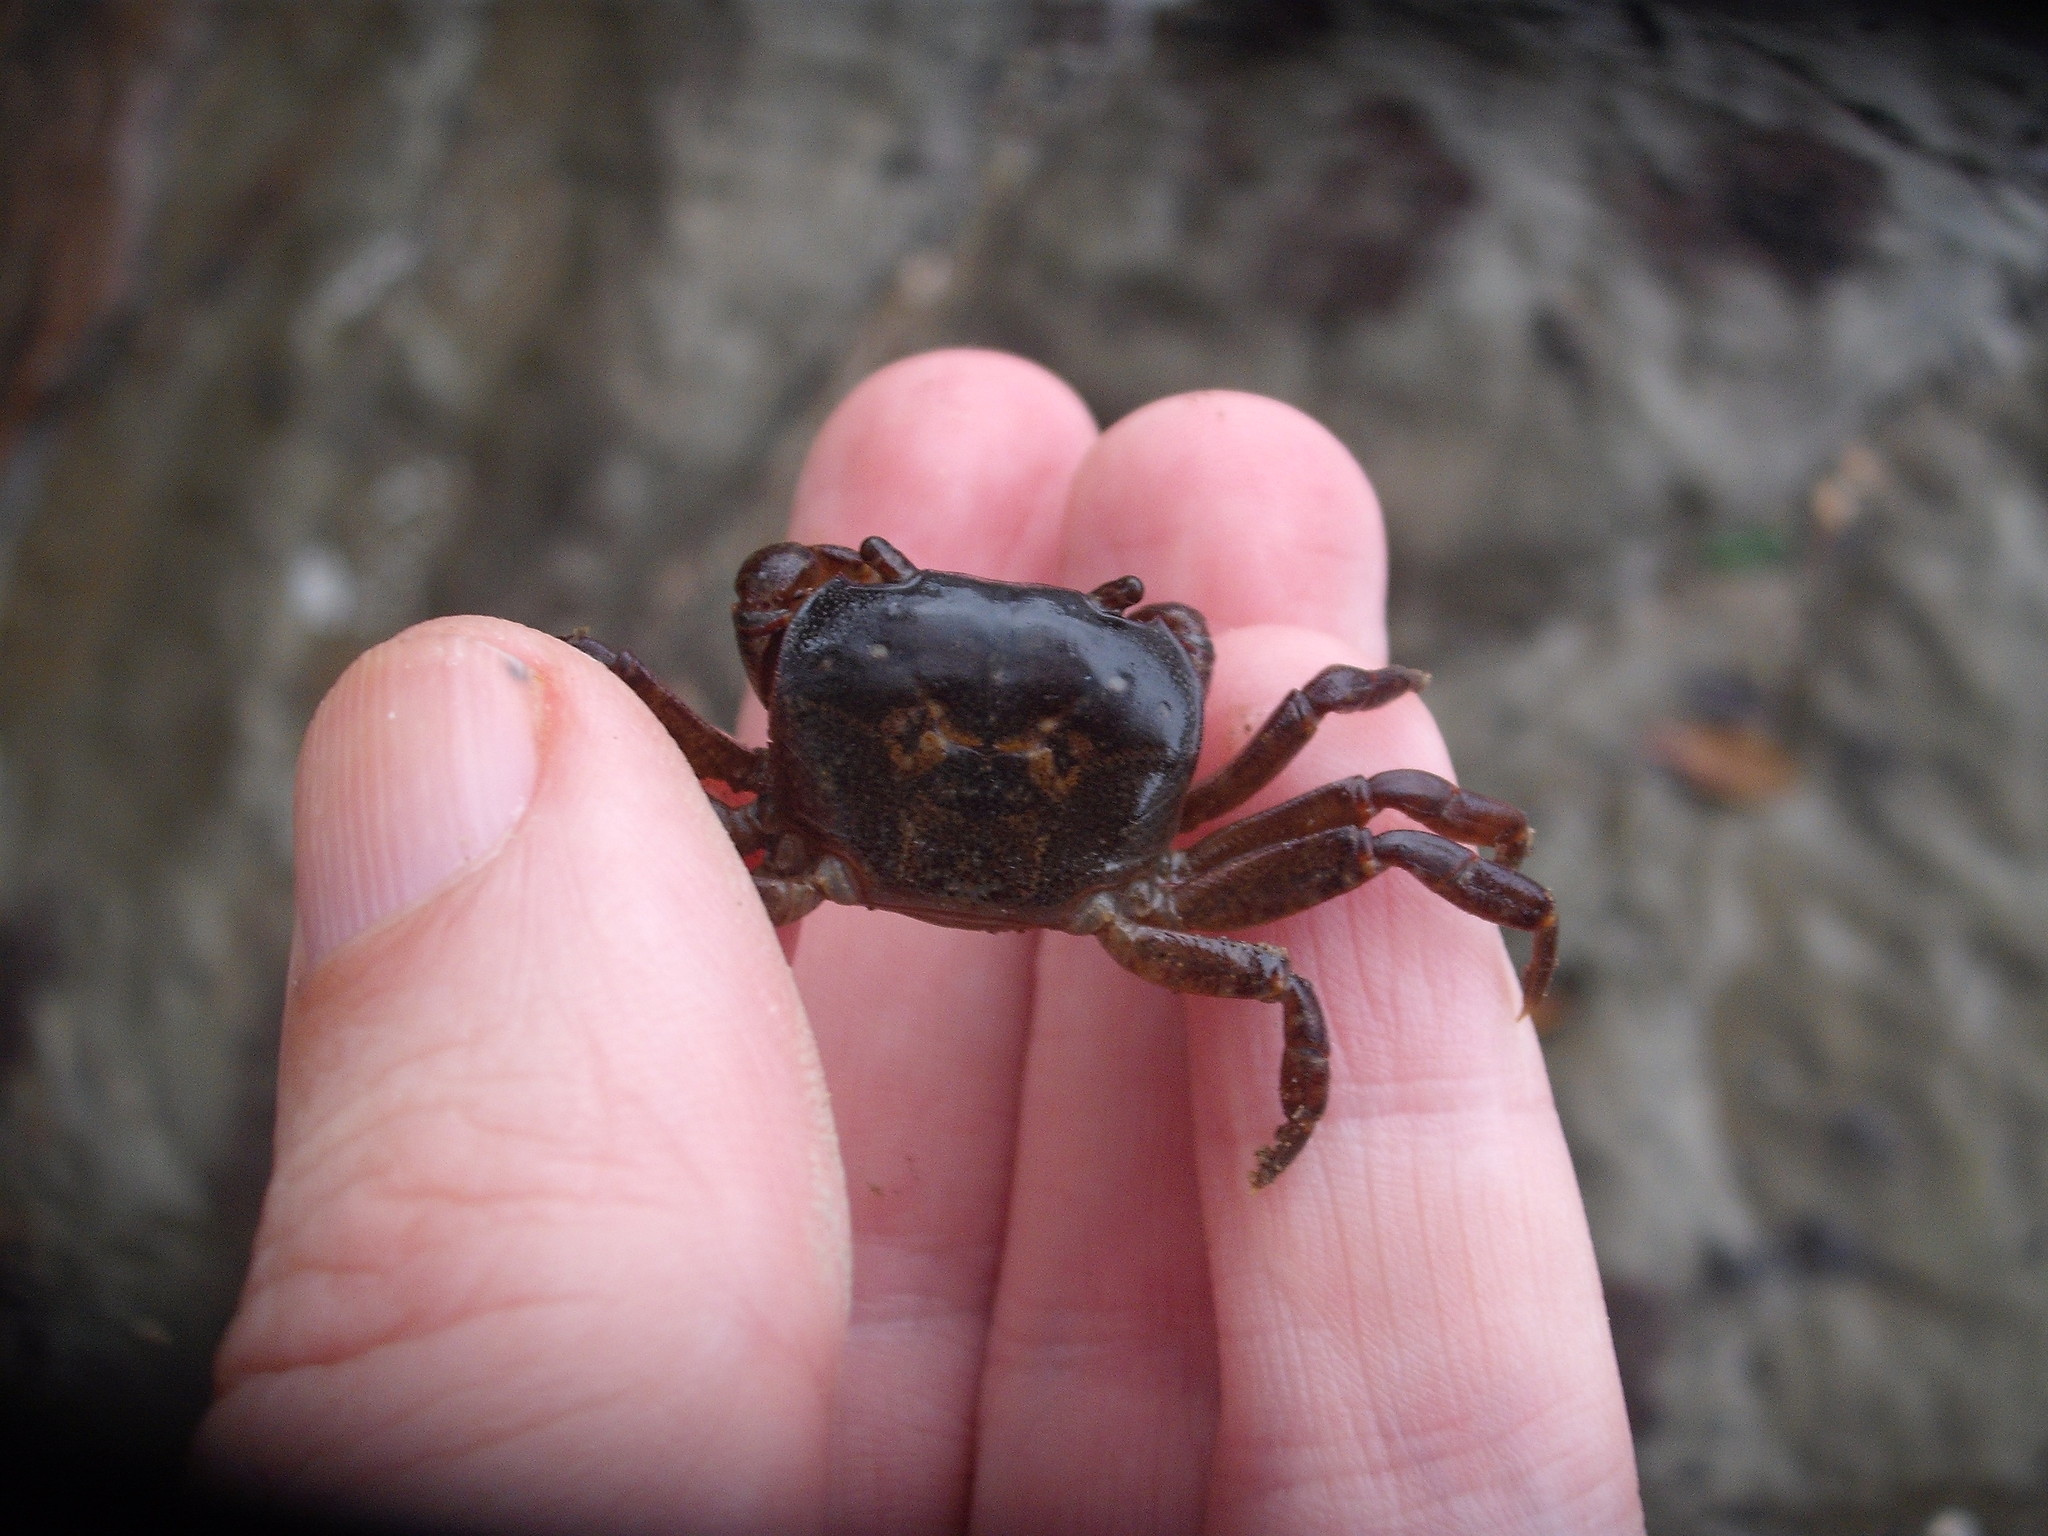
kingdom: Animalia
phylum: Arthropoda
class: Malacostraca
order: Decapoda
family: Varunidae
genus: Cyclograpsus
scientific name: Cyclograpsus lavauxi
